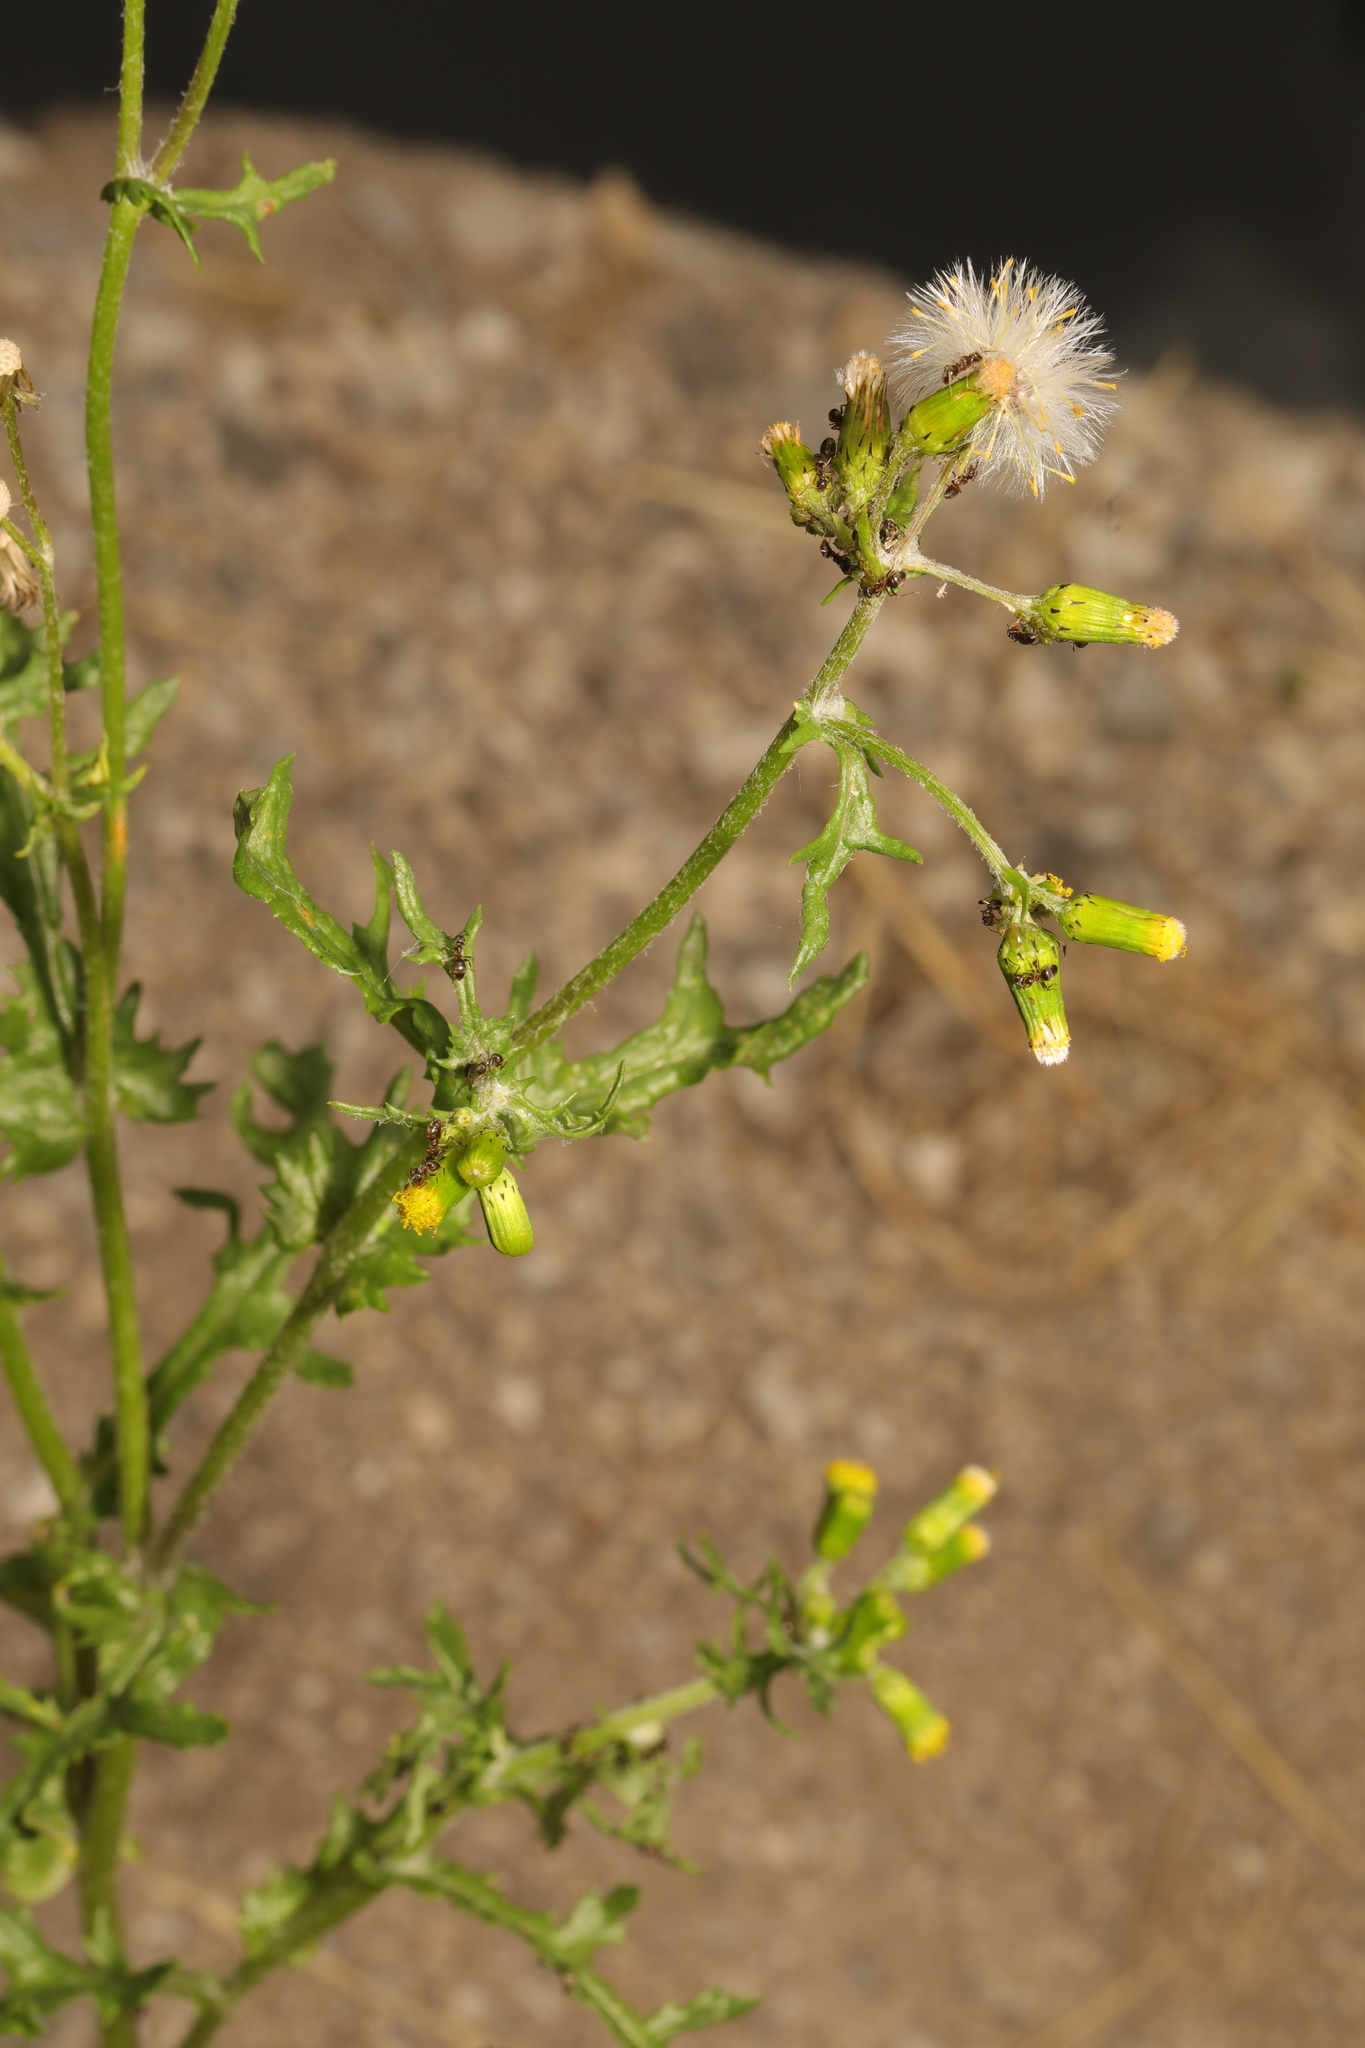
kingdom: Plantae
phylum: Tracheophyta
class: Magnoliopsida
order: Asterales
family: Asteraceae
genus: Senecio
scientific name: Senecio vulgaris
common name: Old-man-in-the-spring
